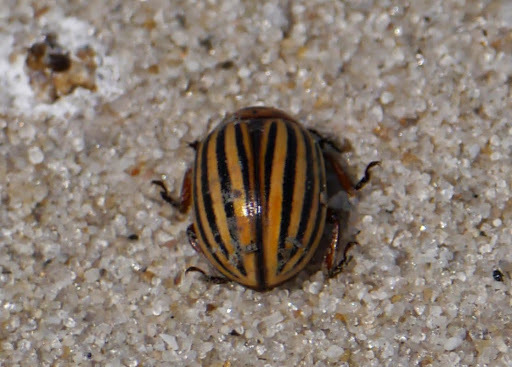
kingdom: Animalia
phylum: Arthropoda
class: Insecta
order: Coleoptera
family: Chrysomelidae
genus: Leptinotarsa
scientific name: Leptinotarsa decemlineata
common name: Colorado potato beetle
